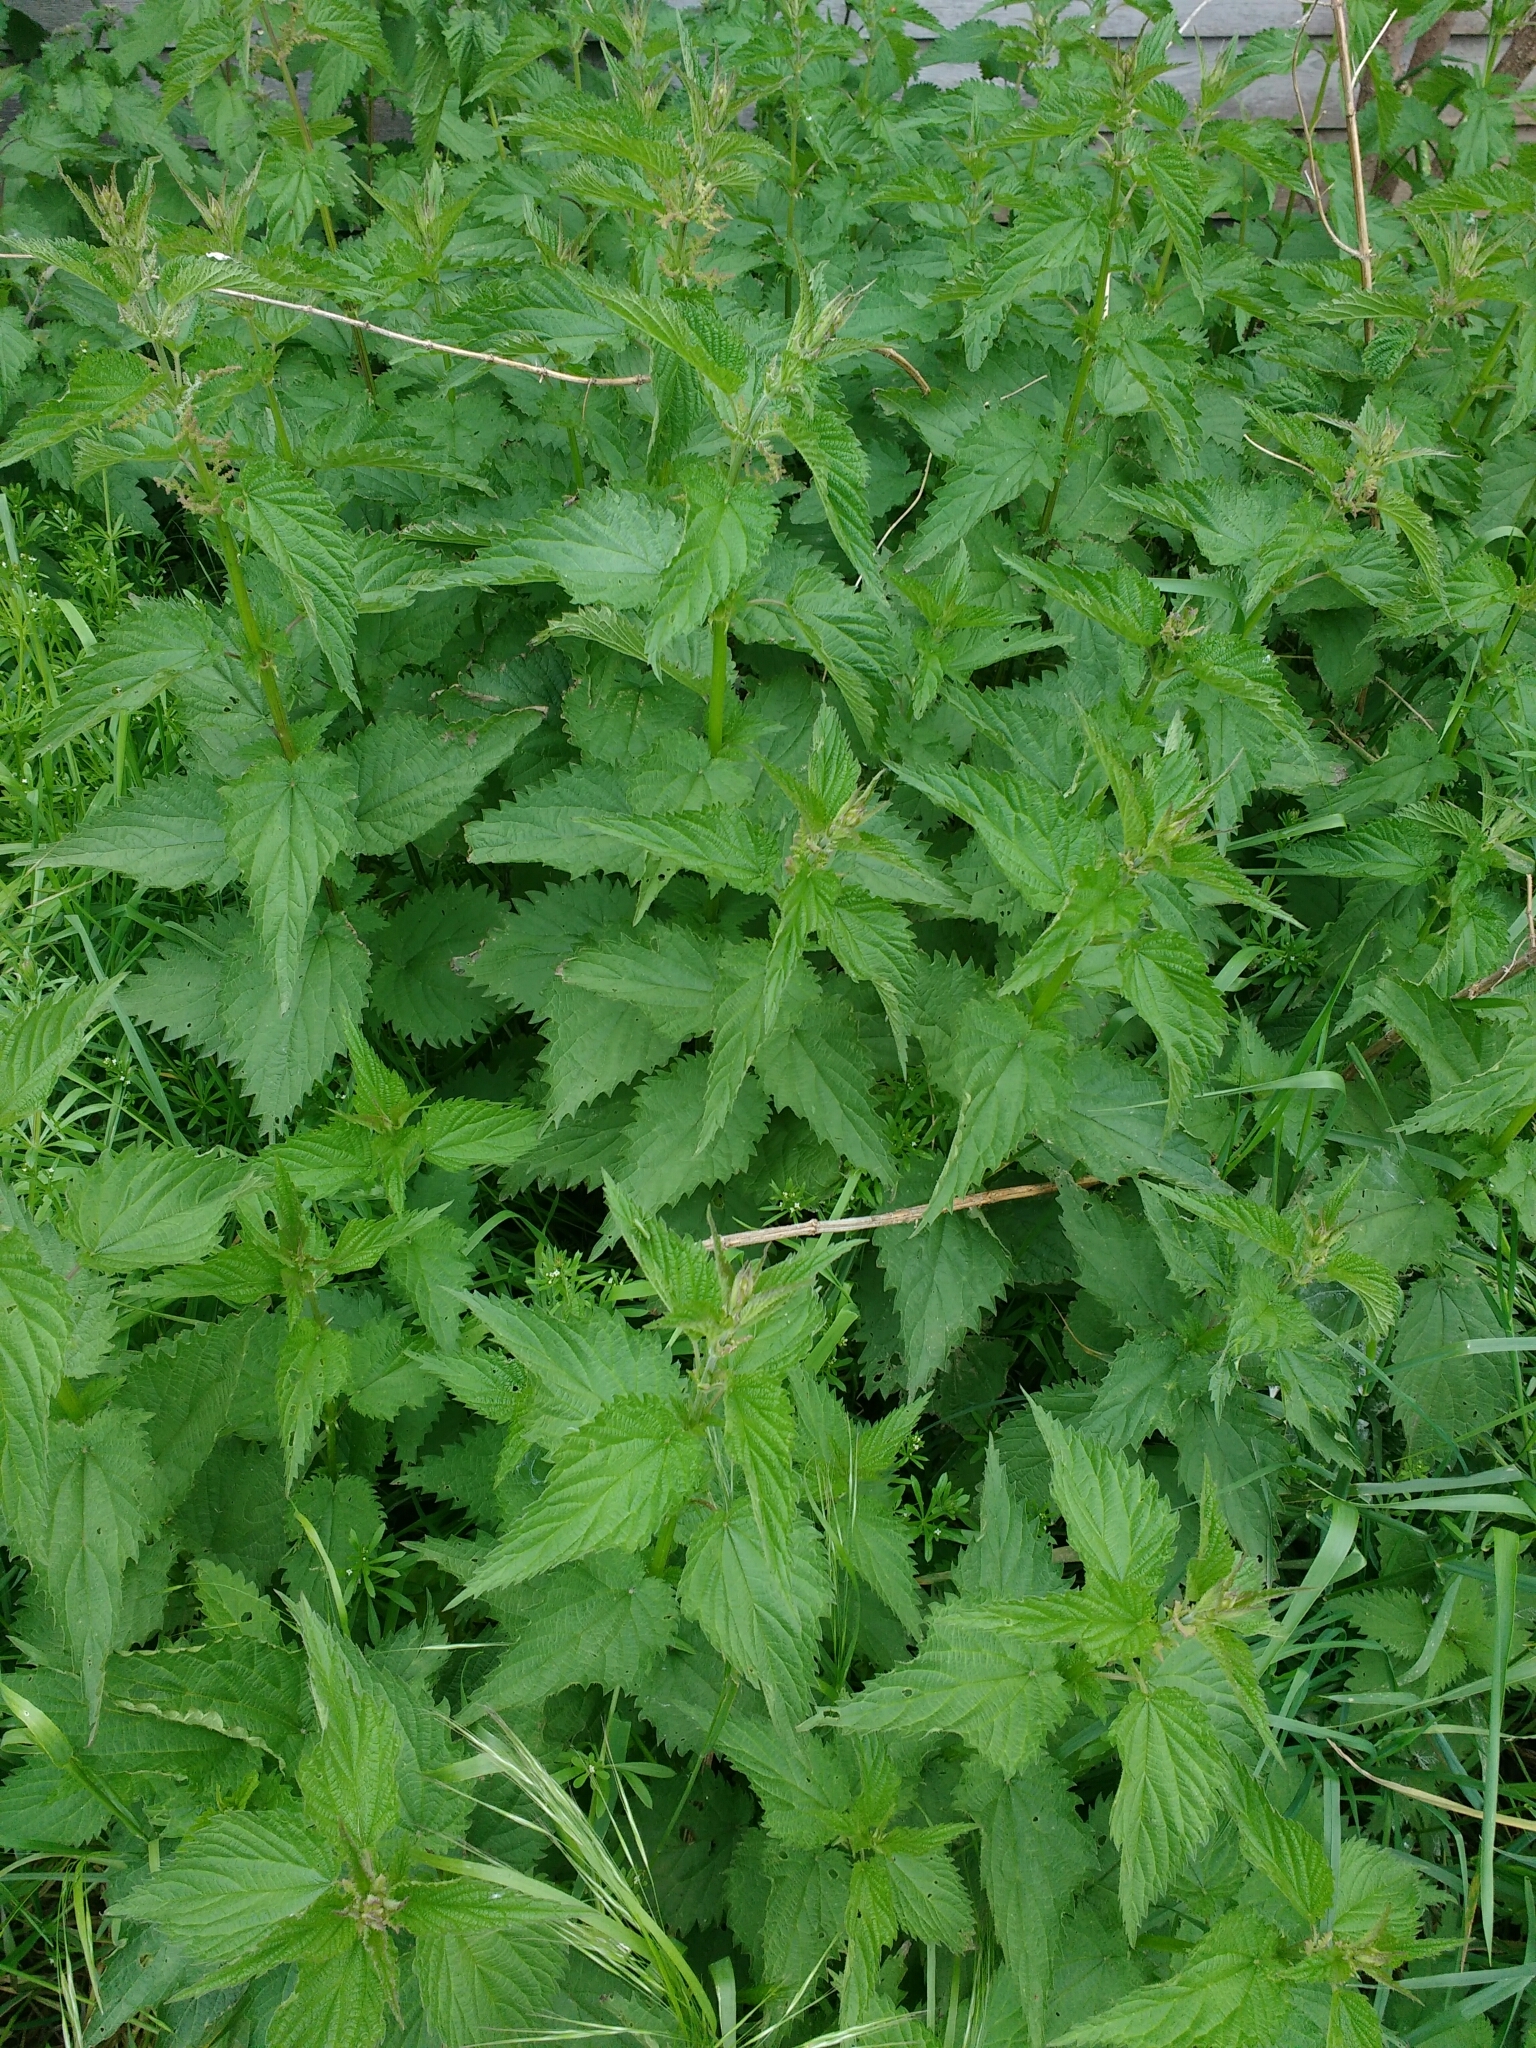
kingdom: Plantae
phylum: Tracheophyta
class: Magnoliopsida
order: Rosales
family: Urticaceae
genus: Urtica
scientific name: Urtica dioica
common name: Common nettle
